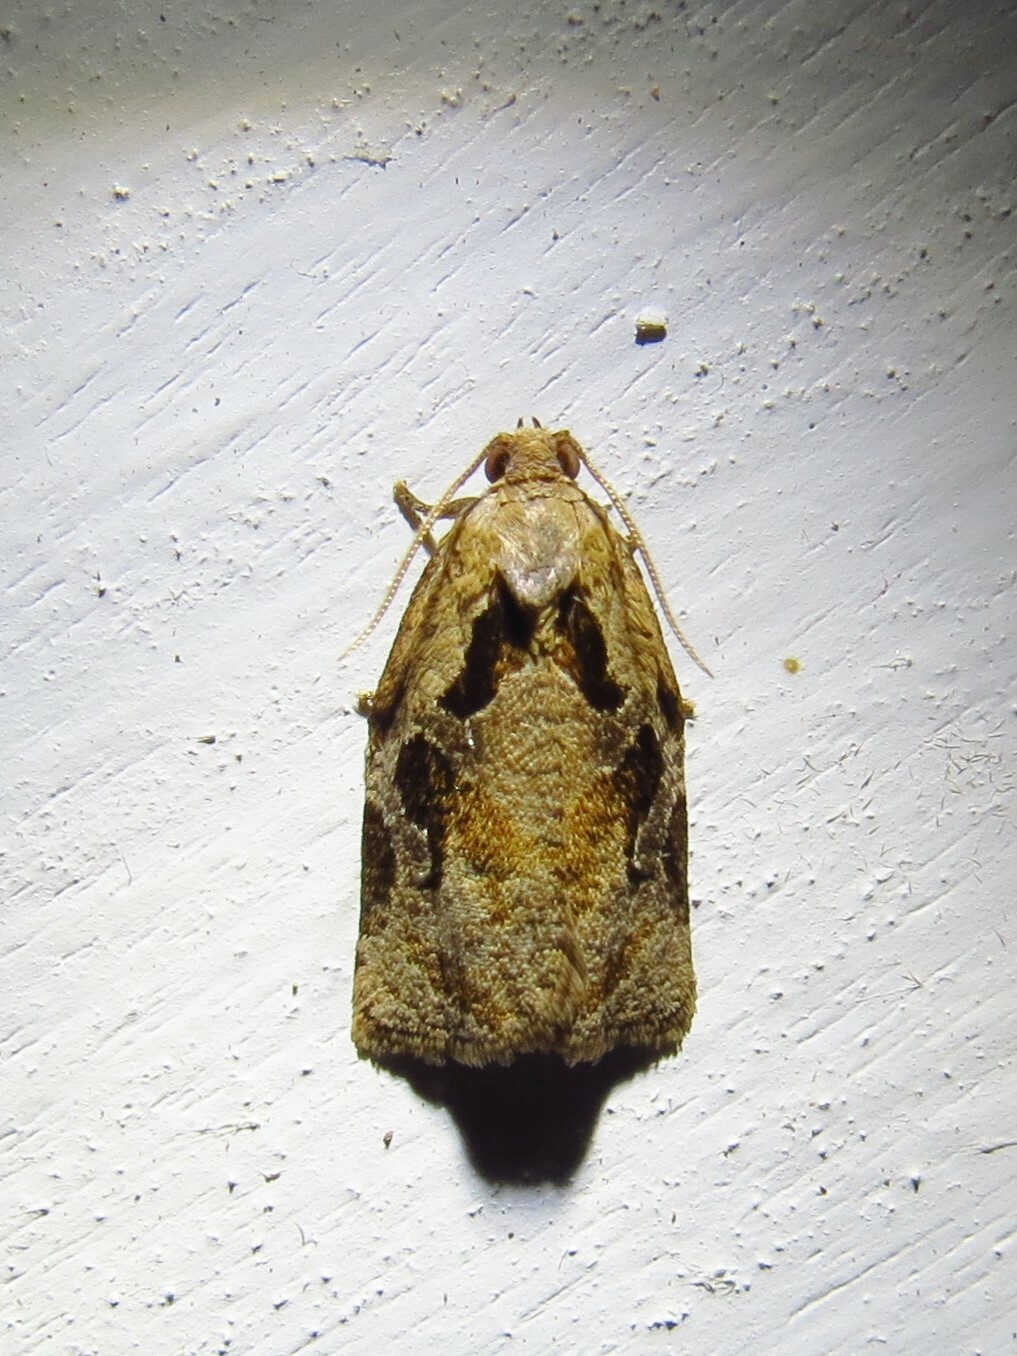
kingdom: Animalia
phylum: Arthropoda
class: Insecta
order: Lepidoptera
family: Tortricidae
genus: Archips
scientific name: Archips grisea
